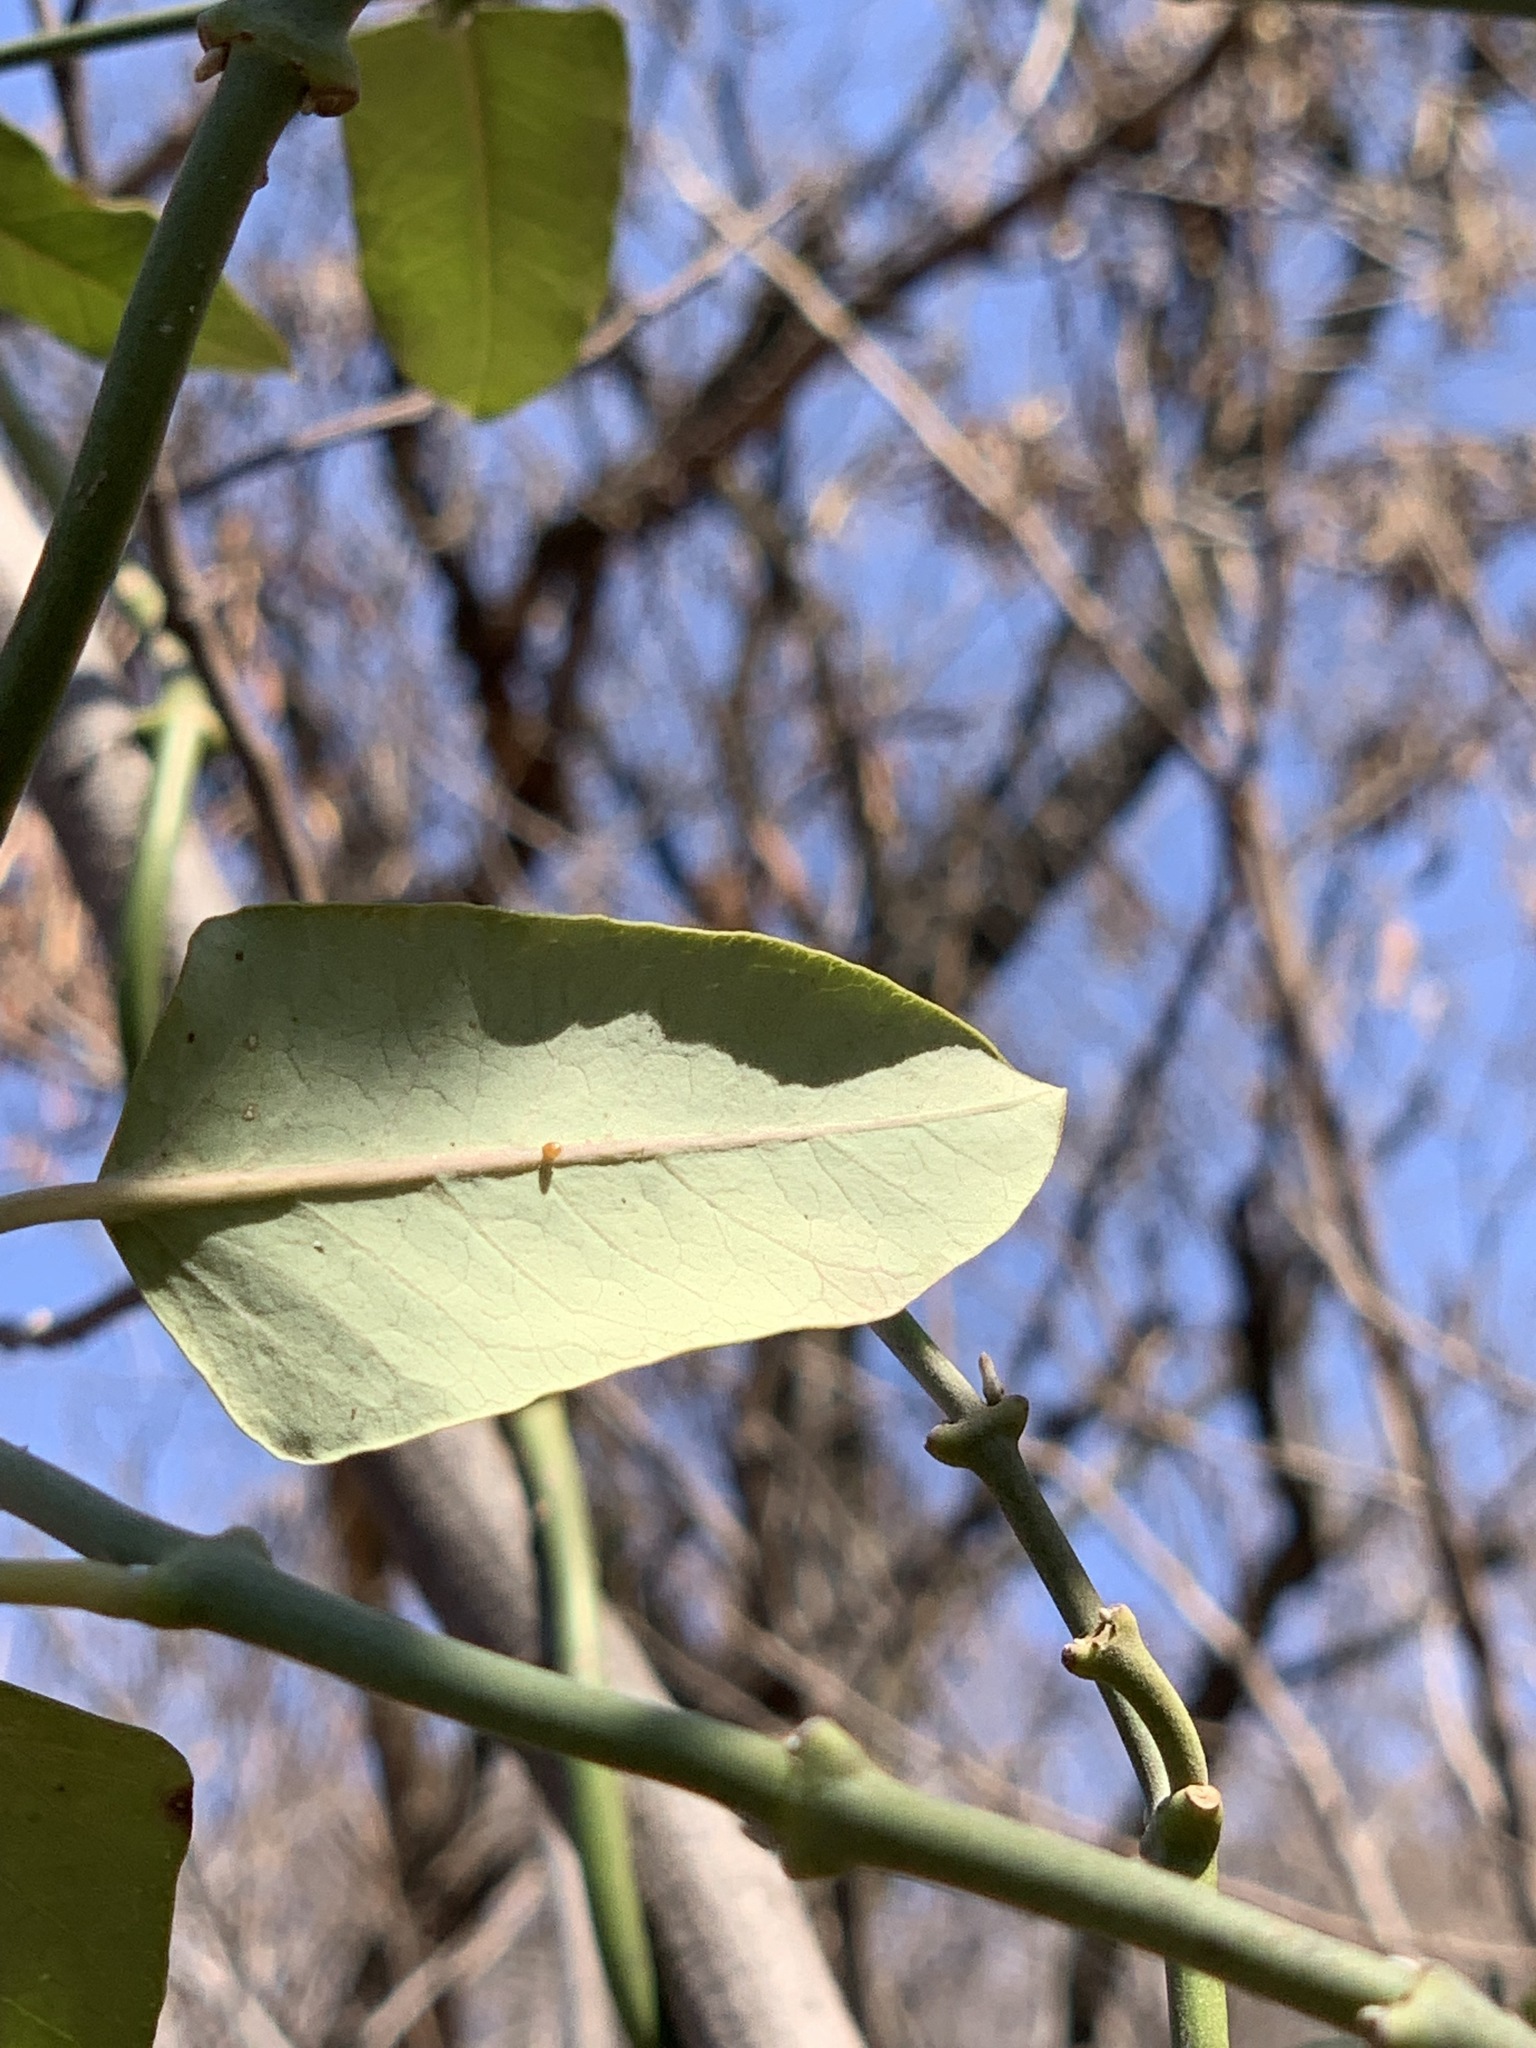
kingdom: Plantae
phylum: Tracheophyta
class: Magnoliopsida
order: Gentianales
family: Apocynaceae
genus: Araujia
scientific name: Araujia sericifera
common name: White bladderflower
